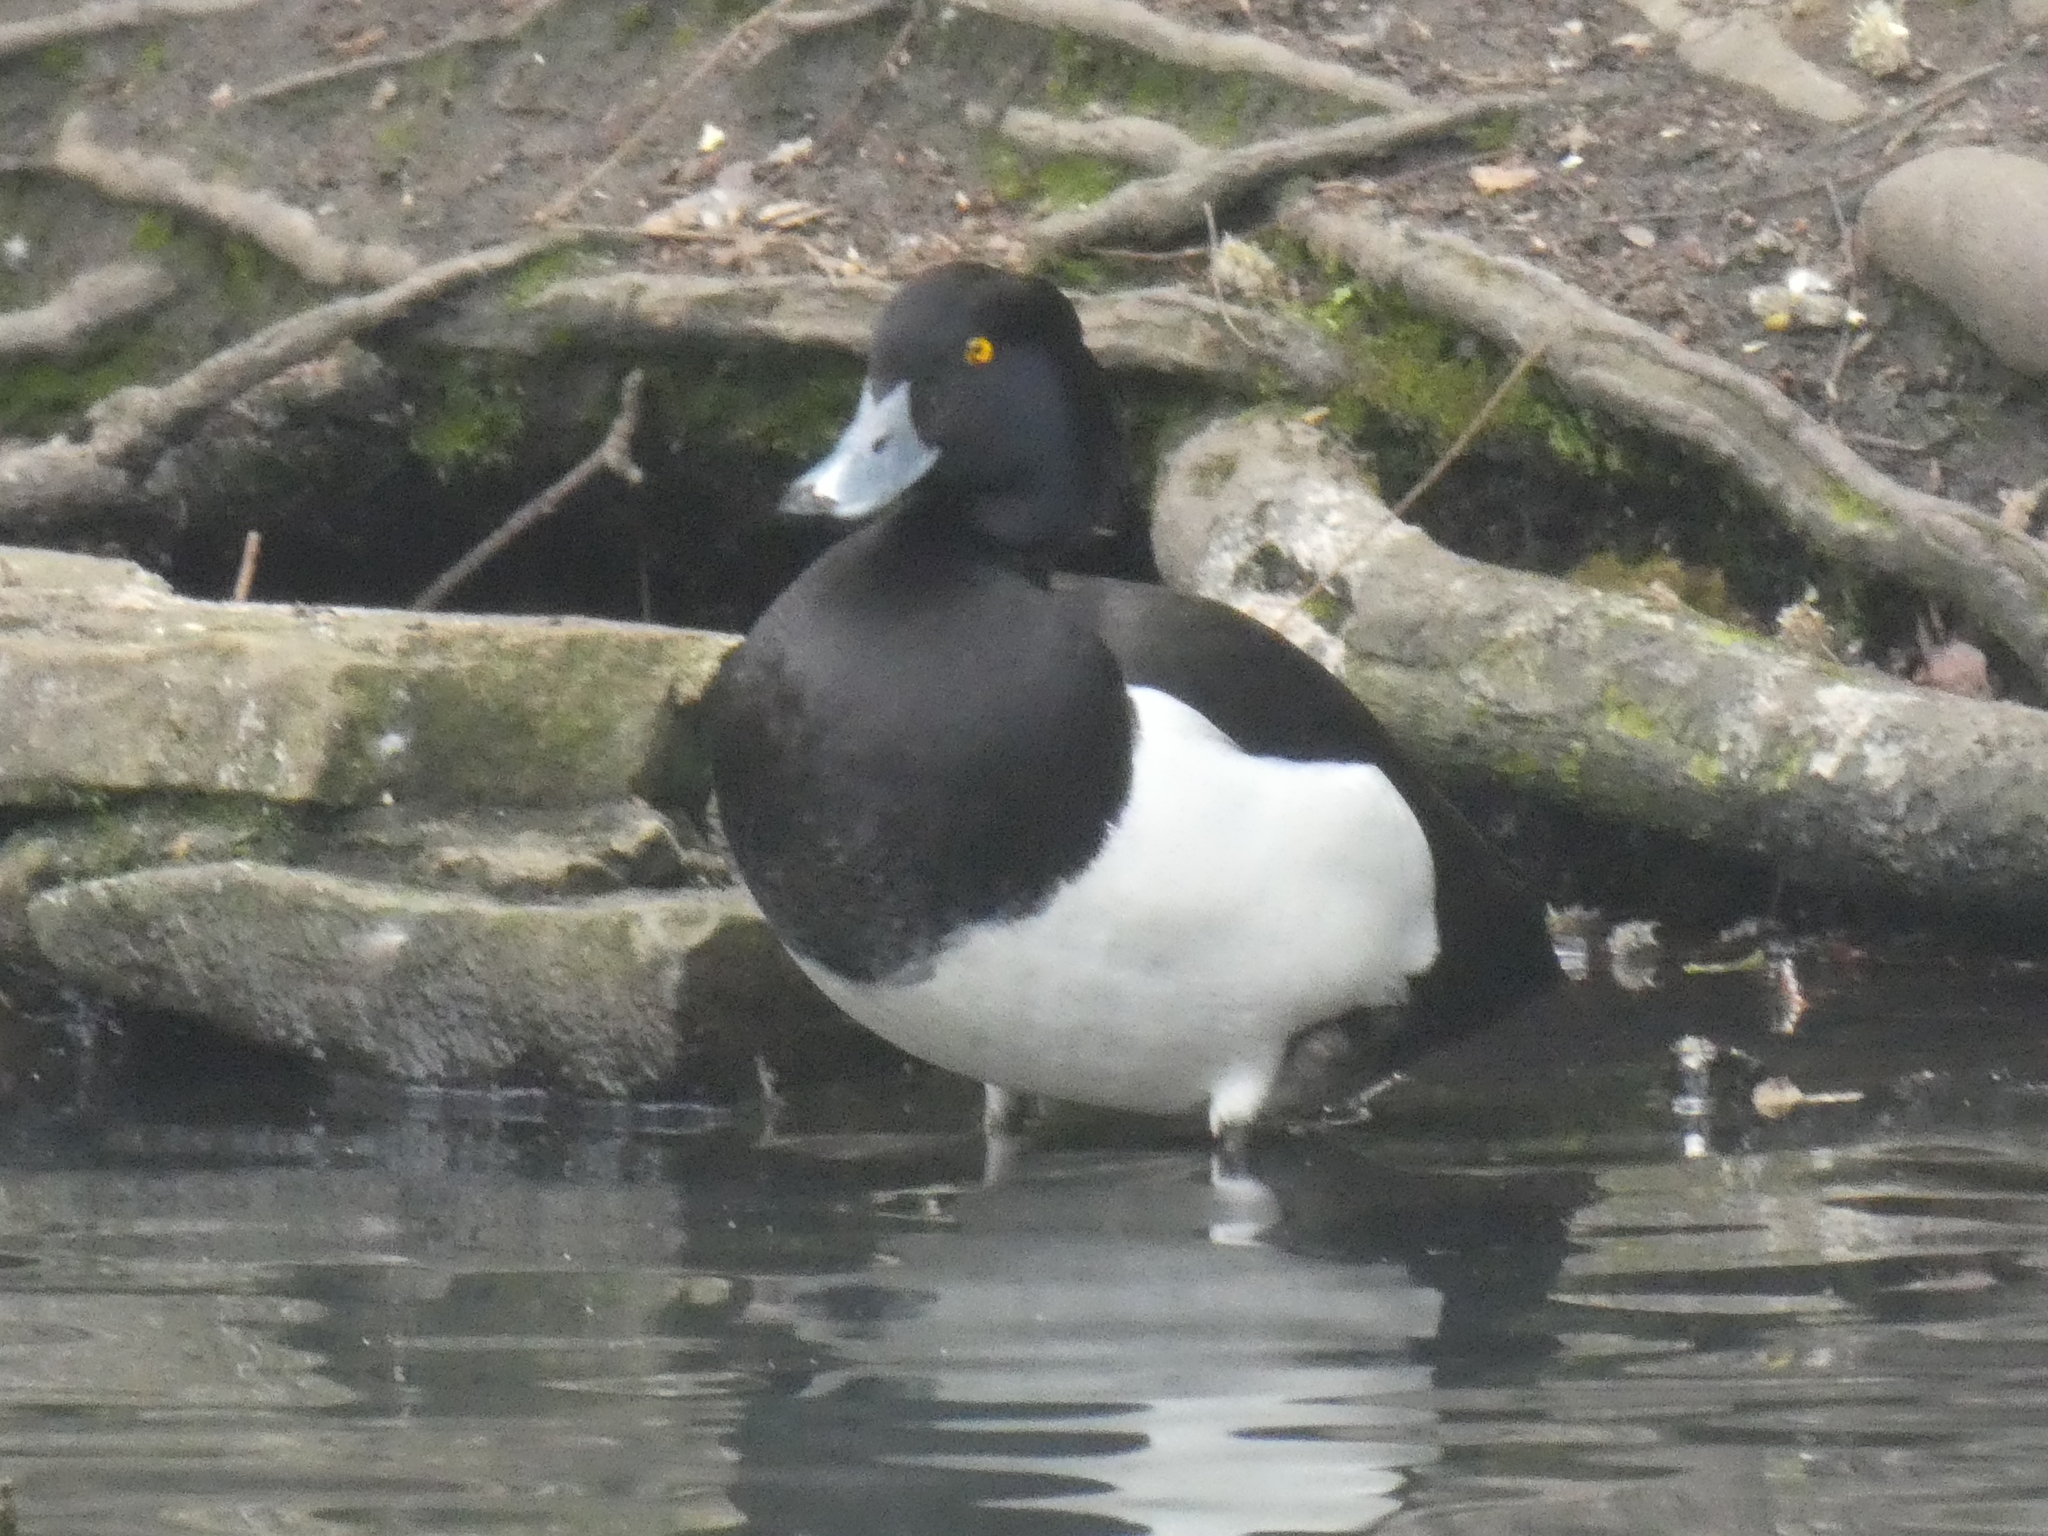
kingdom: Animalia
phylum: Chordata
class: Aves
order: Anseriformes
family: Anatidae
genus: Aythya
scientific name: Aythya fuligula
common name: Tufted duck
